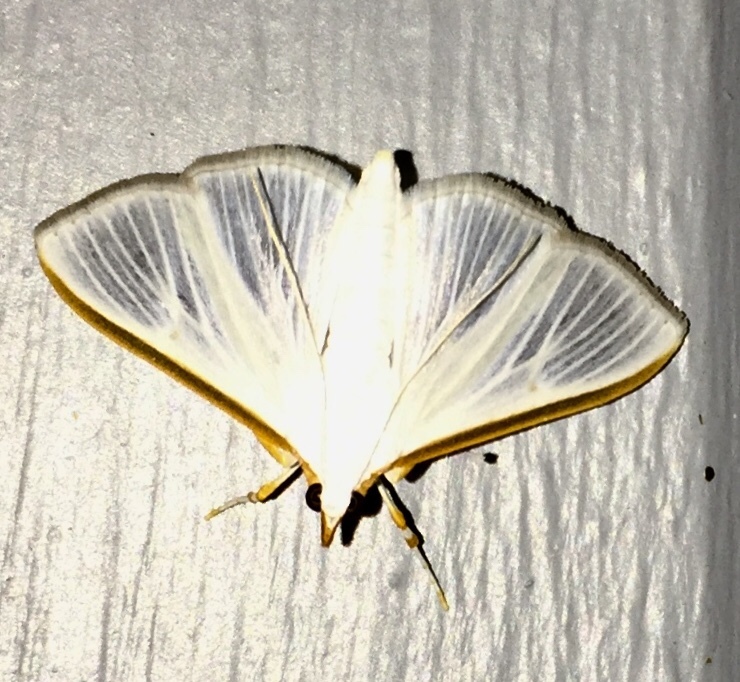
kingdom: Animalia
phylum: Arthropoda
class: Insecta
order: Lepidoptera
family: Crambidae
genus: Diaphania
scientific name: Diaphania costata
